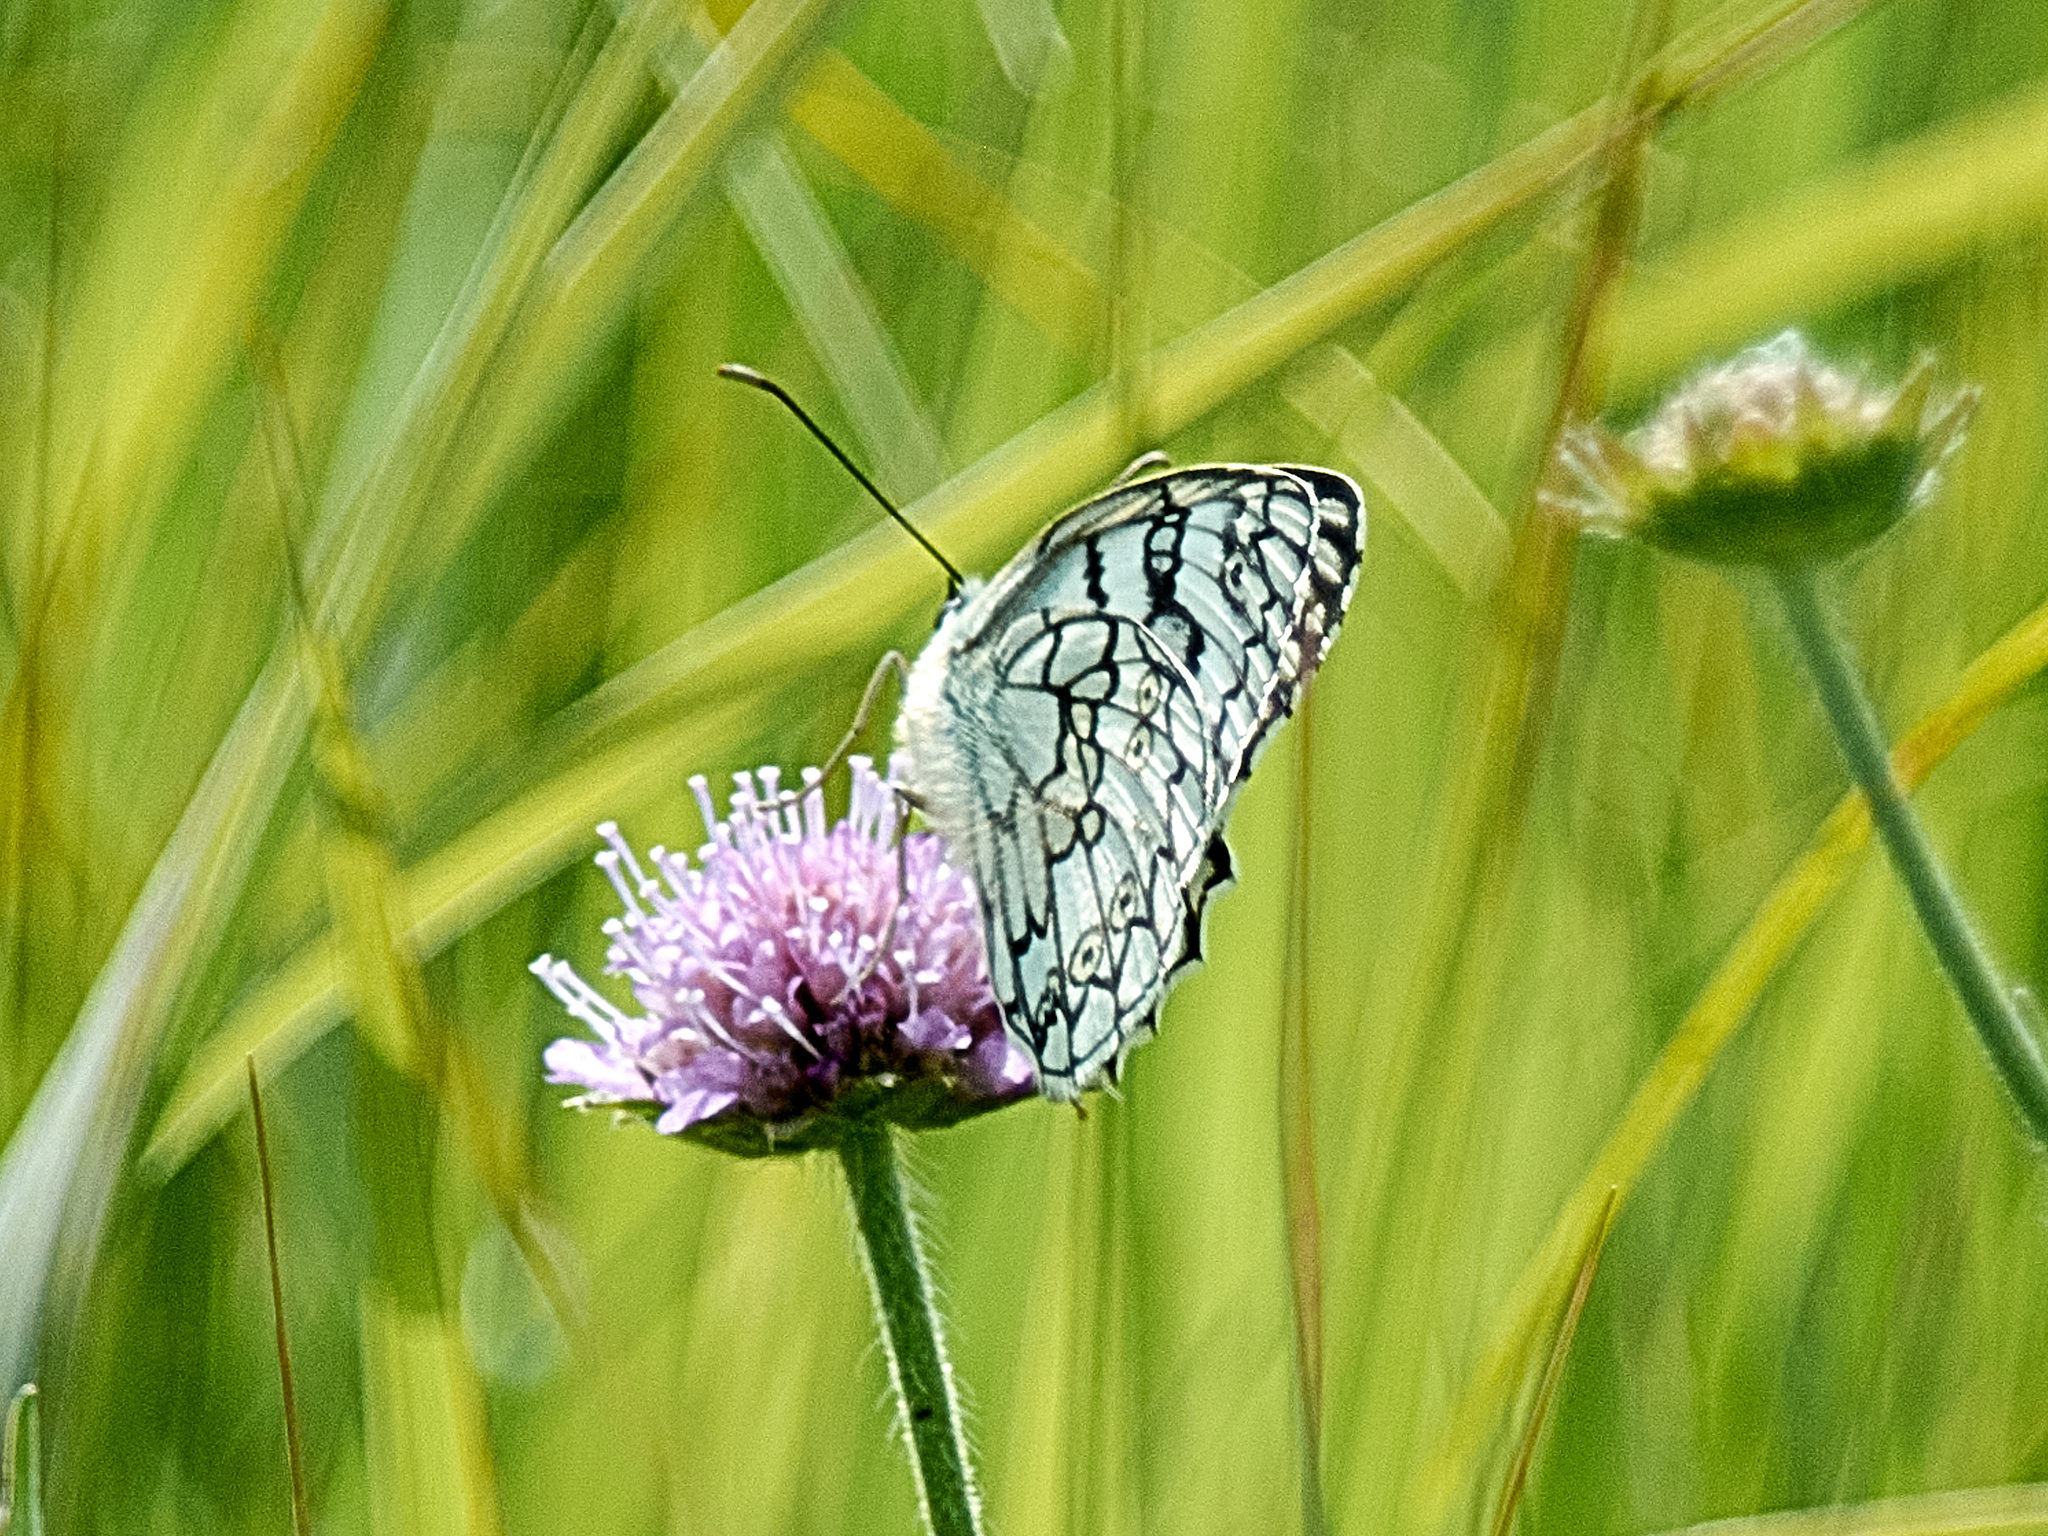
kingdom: Animalia
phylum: Arthropoda
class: Insecta
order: Lepidoptera
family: Nymphalidae
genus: Melanargia
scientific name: Melanargia japygia
